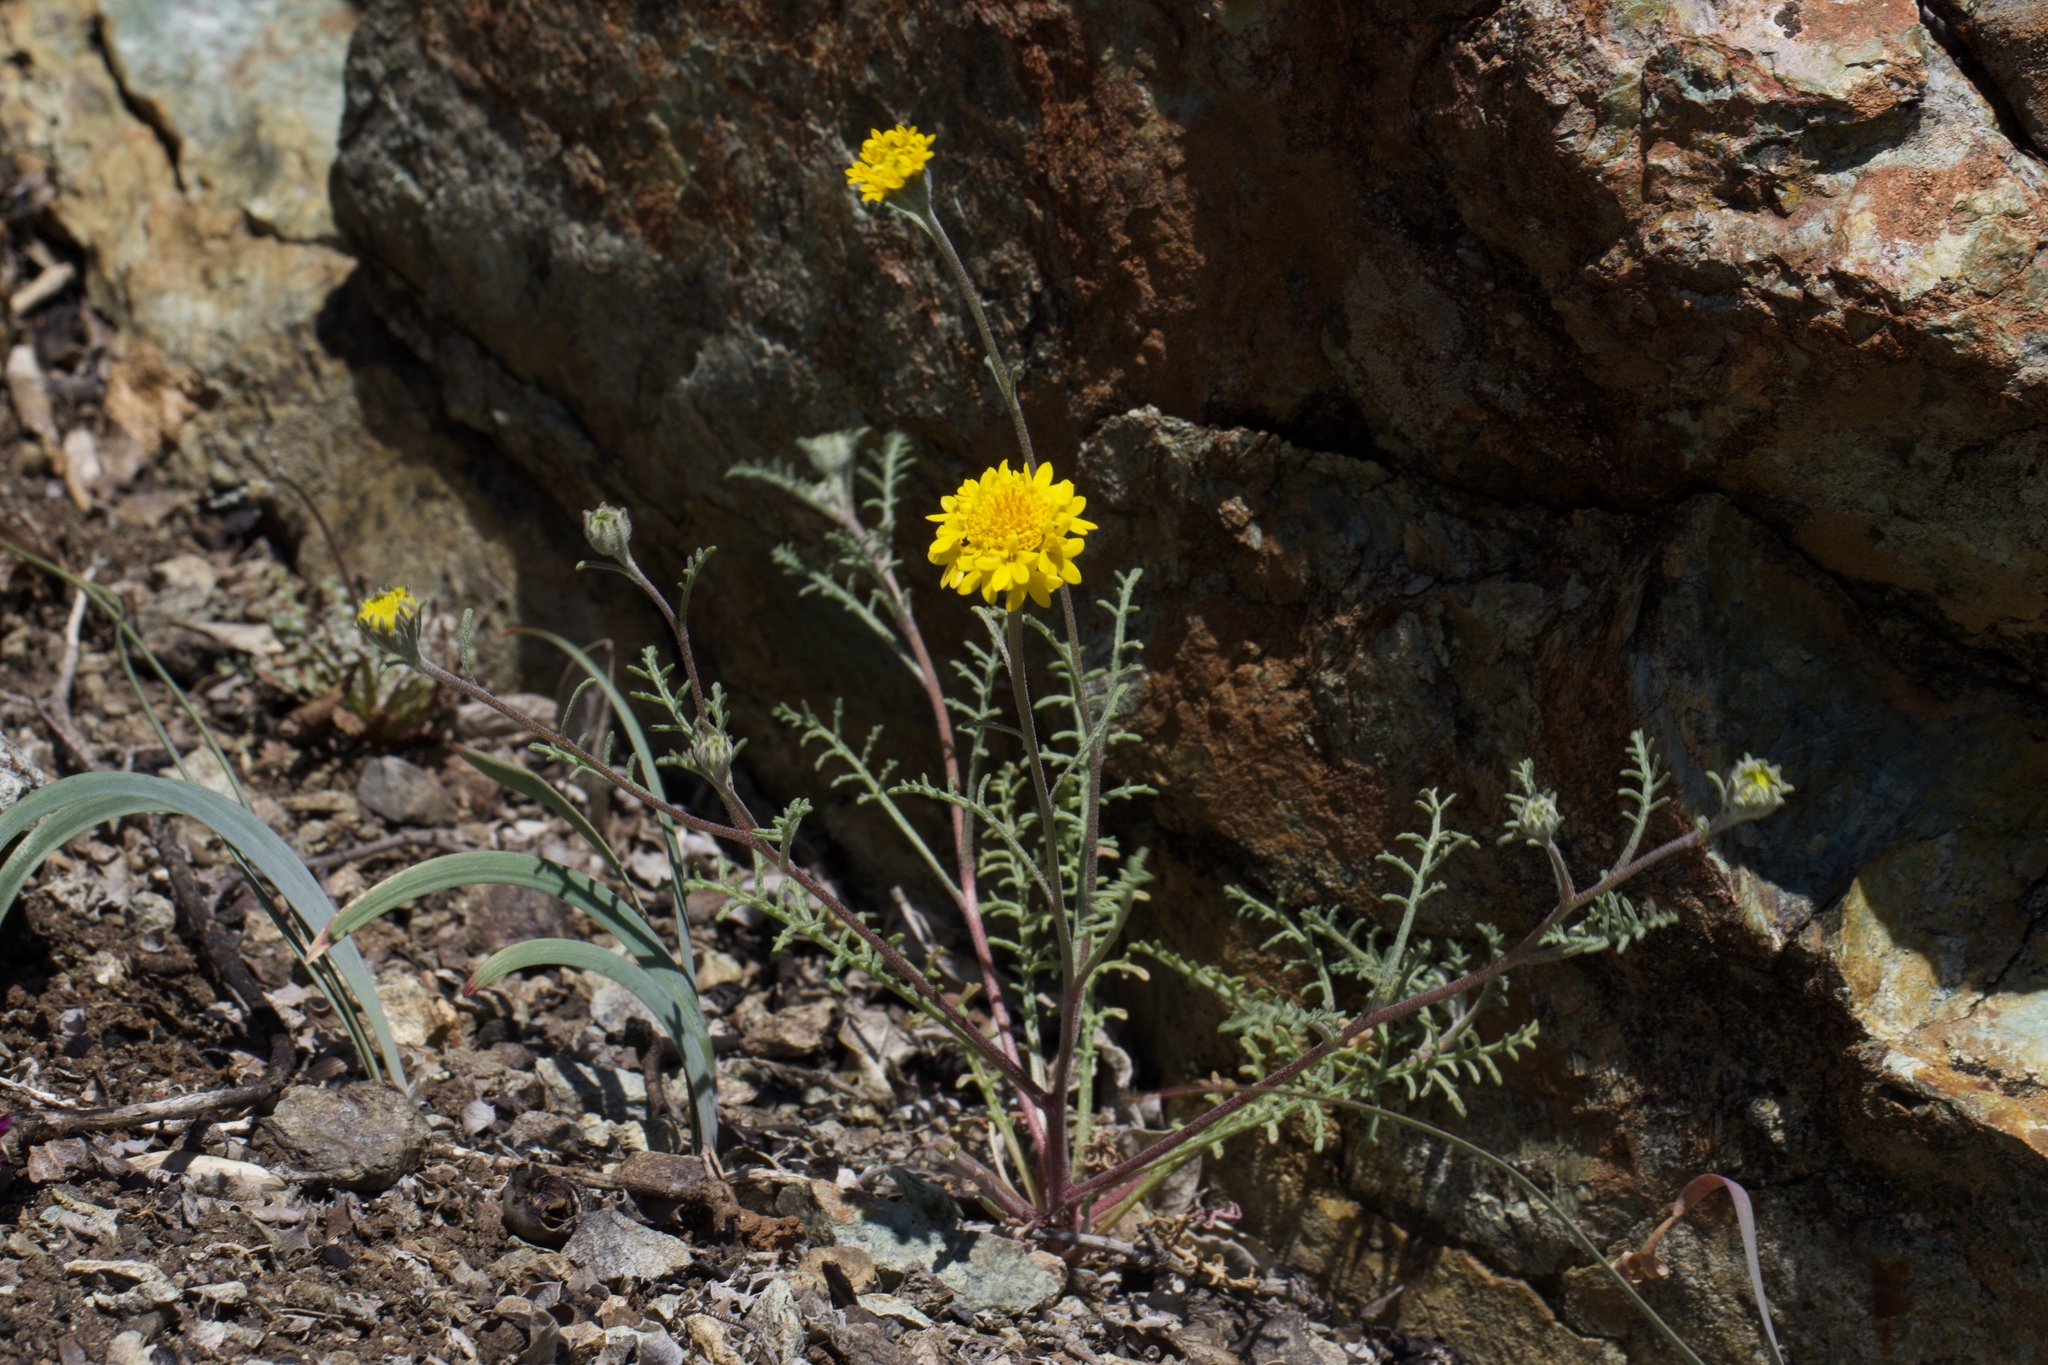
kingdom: Plantae
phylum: Tracheophyta
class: Magnoliopsida
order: Asterales
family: Asteraceae
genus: Chaenactis
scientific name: Chaenactis glabriuscula
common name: Yellow pincushion
